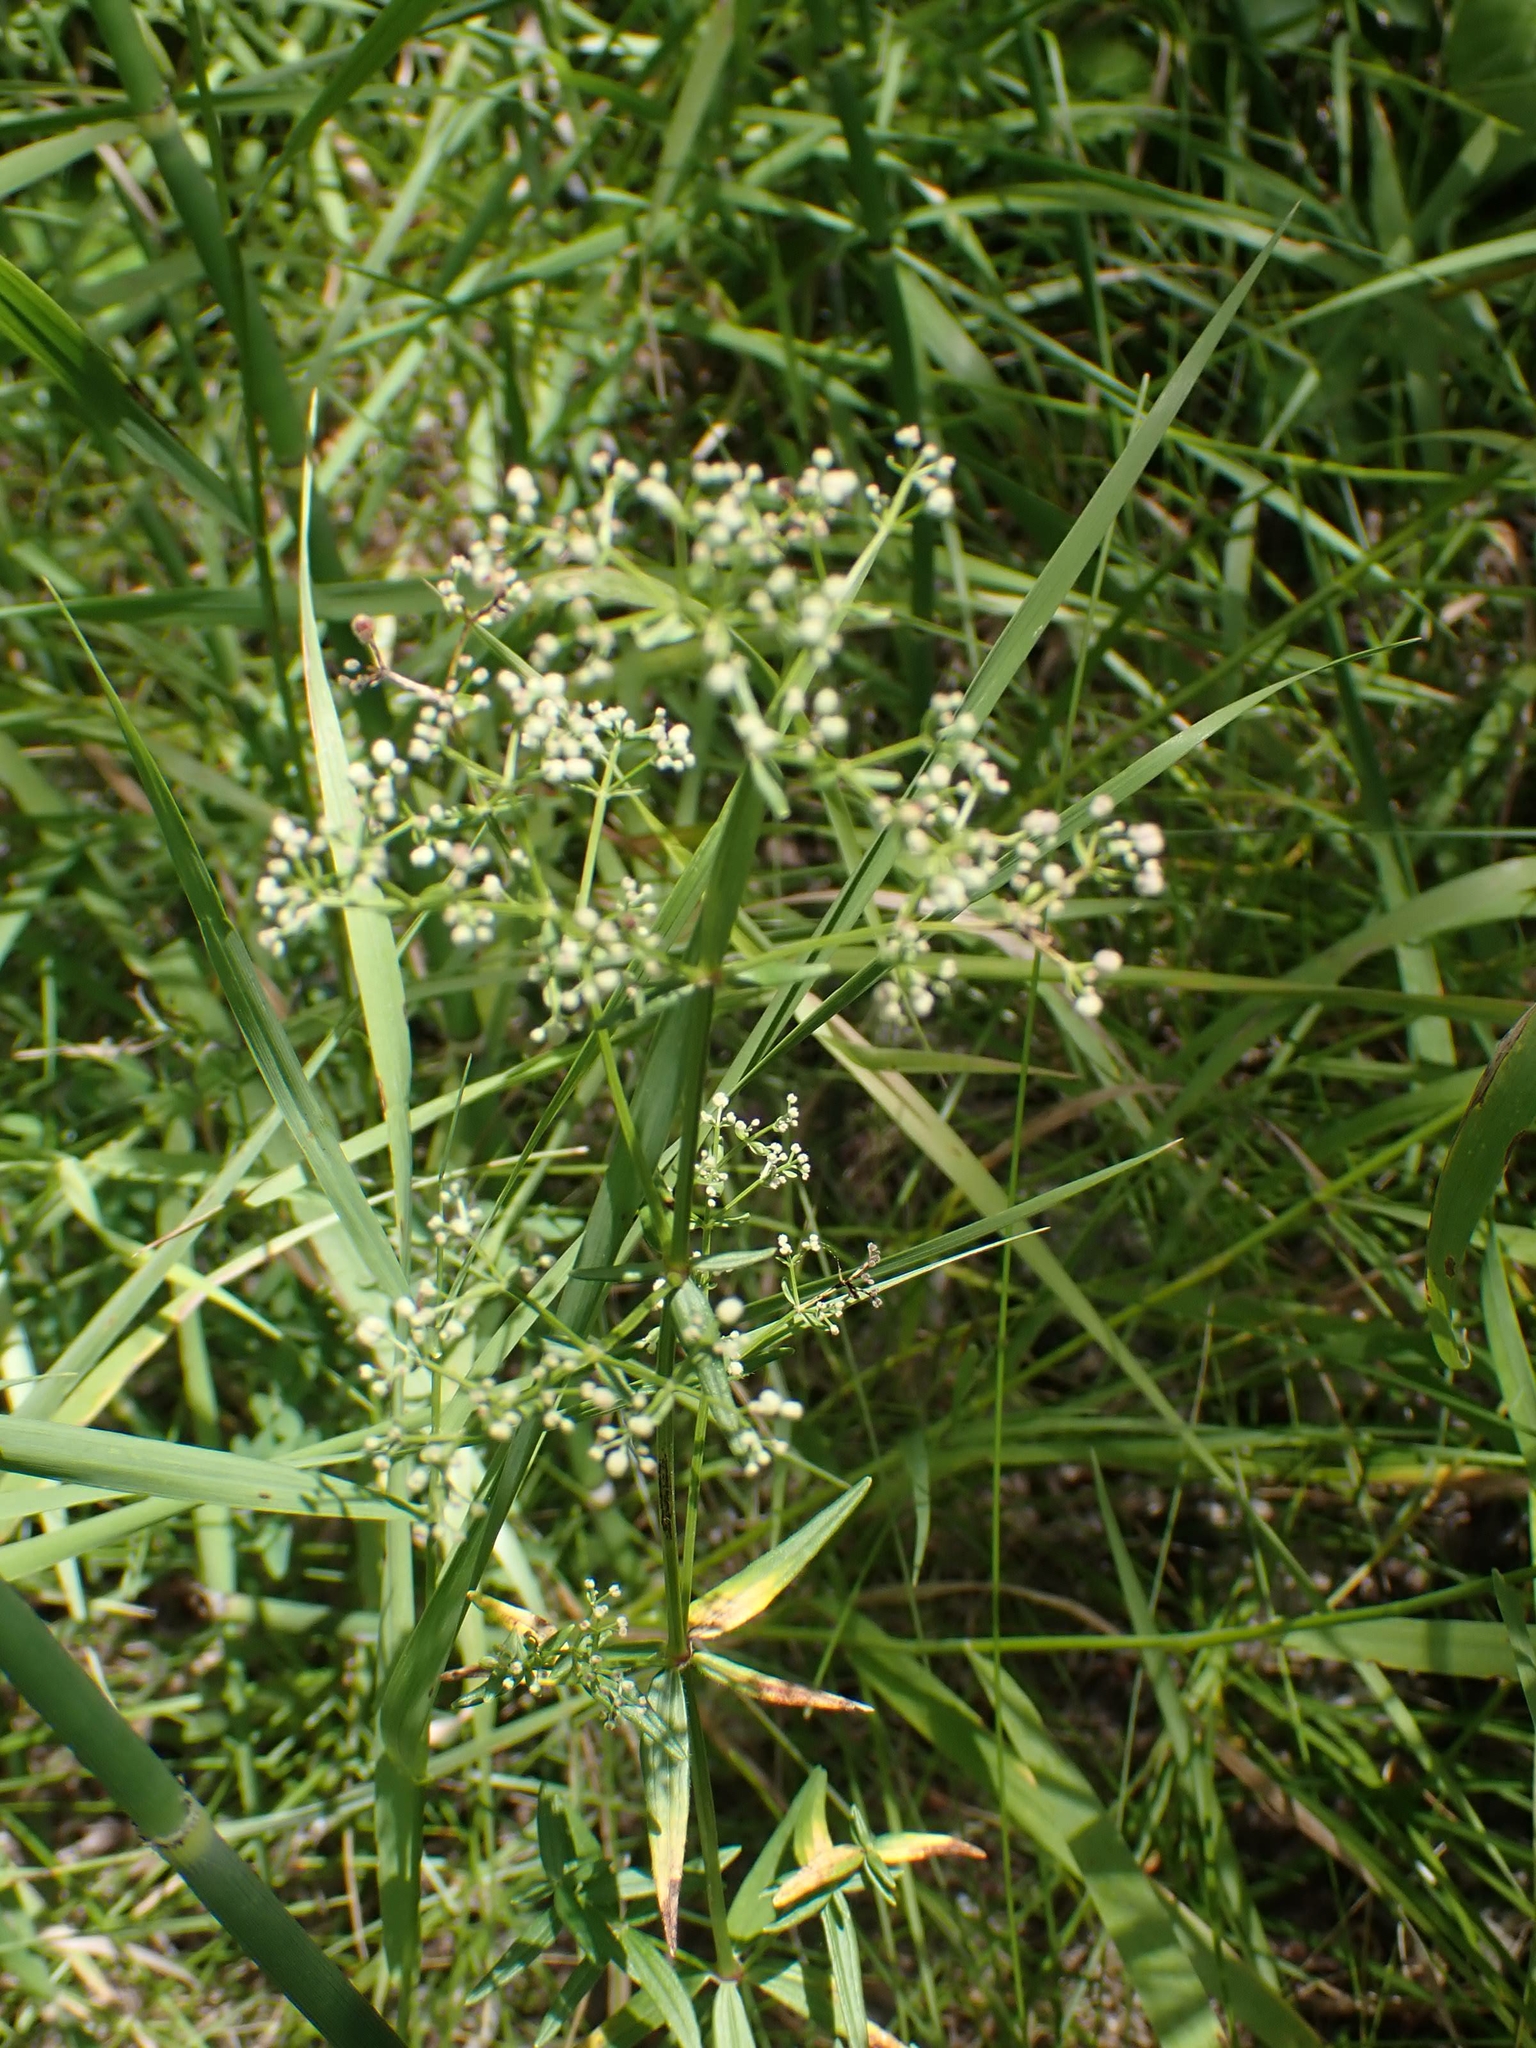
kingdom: Plantae
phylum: Tracheophyta
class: Magnoliopsida
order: Gentianales
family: Rubiaceae
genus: Galium
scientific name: Galium boreale
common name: Northern bedstraw
